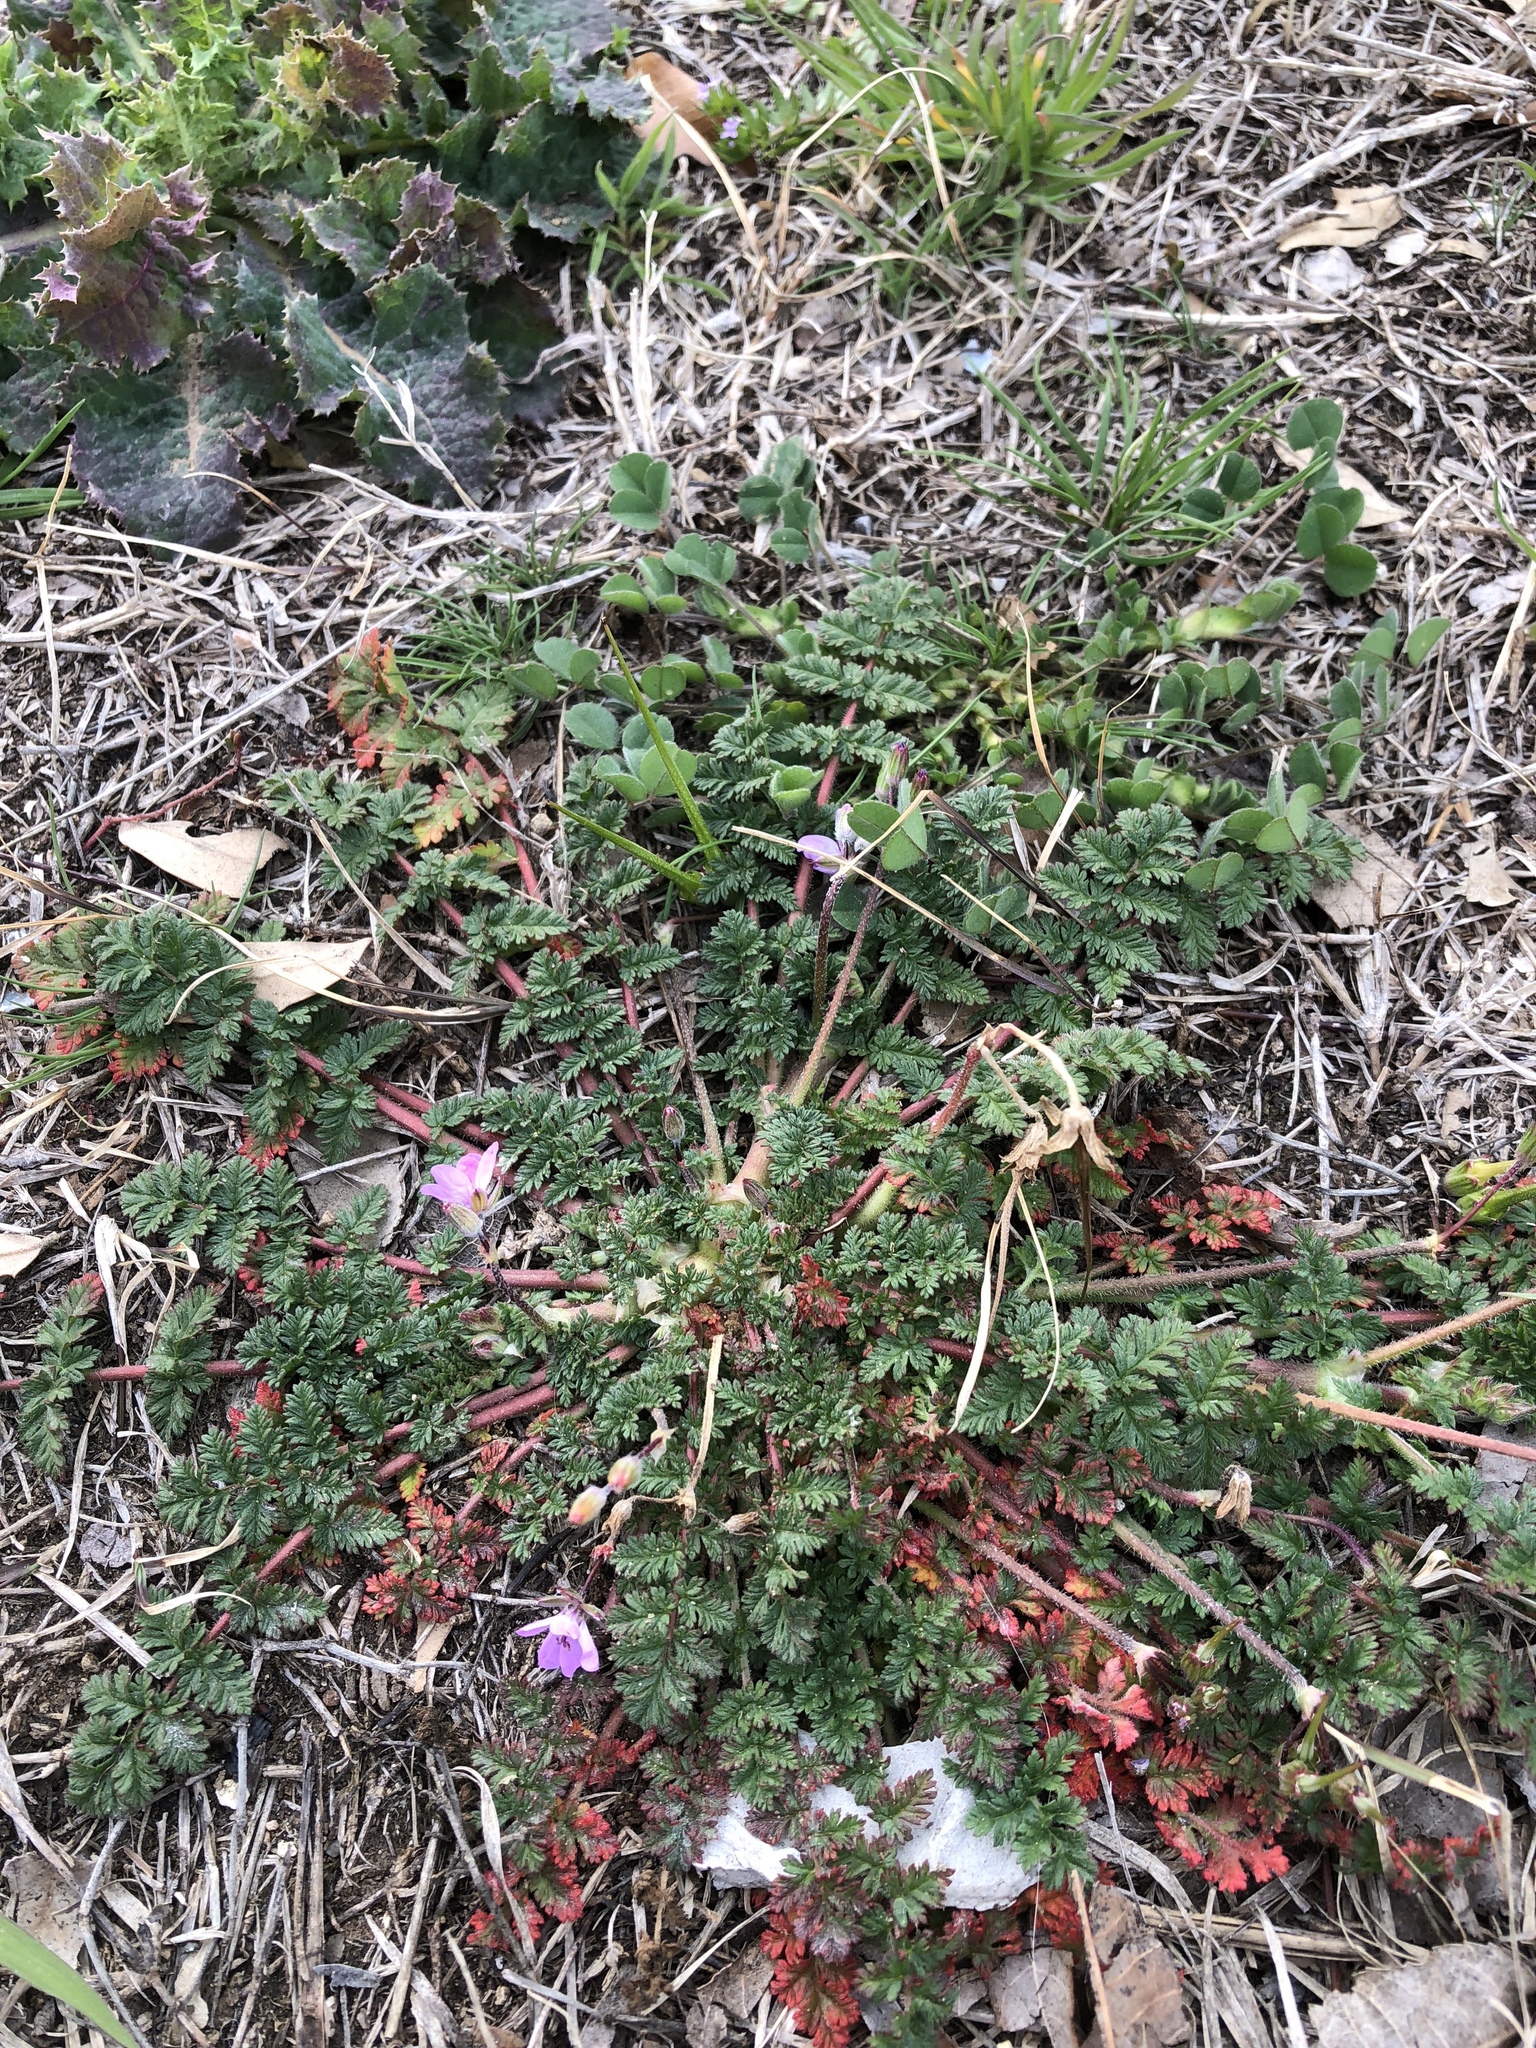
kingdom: Plantae
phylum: Tracheophyta
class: Magnoliopsida
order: Geraniales
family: Geraniaceae
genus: Erodium
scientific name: Erodium cicutarium
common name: Common stork's-bill
